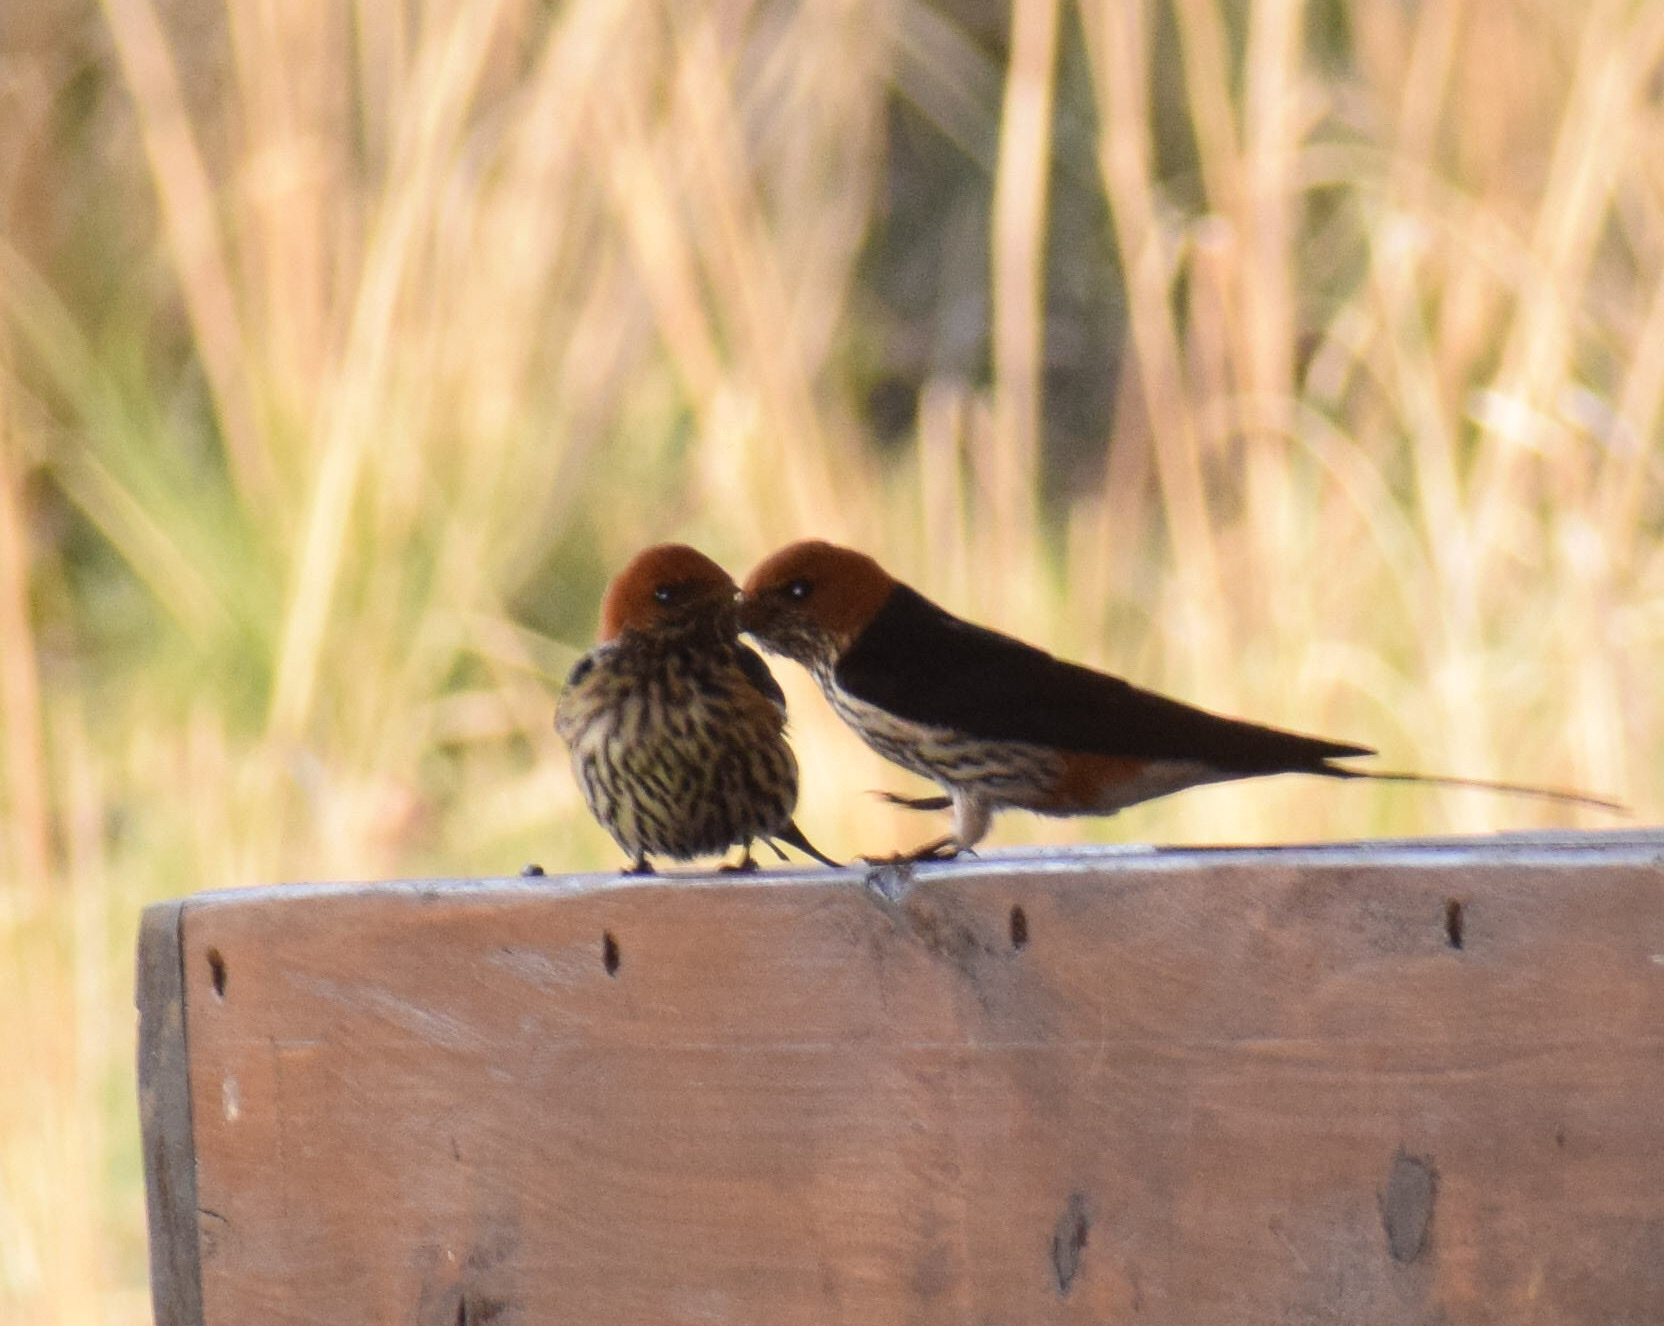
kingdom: Animalia
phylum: Chordata
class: Aves
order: Passeriformes
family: Hirundinidae
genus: Cecropis
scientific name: Cecropis abyssinica
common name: Lesser striped-swallow
